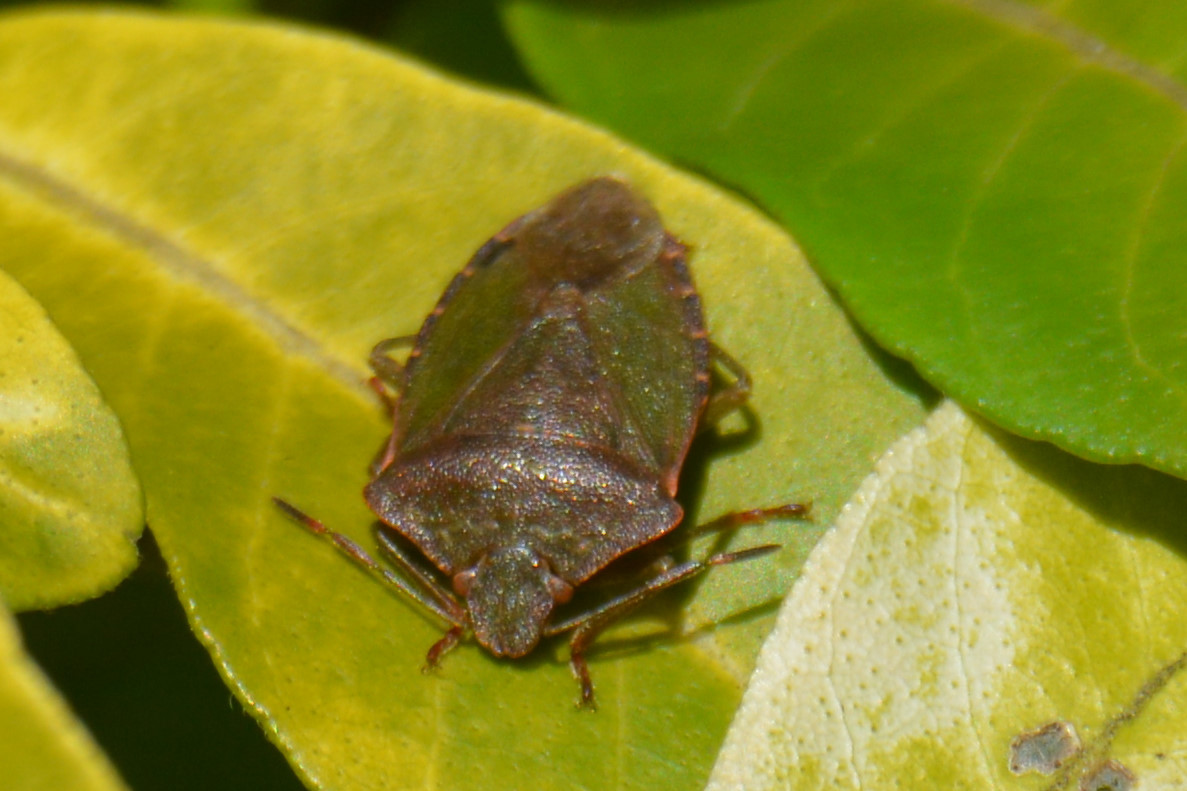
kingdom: Animalia
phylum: Arthropoda
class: Insecta
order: Hemiptera
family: Pentatomidae
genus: Palomena
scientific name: Palomena prasina
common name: Green shieldbug
